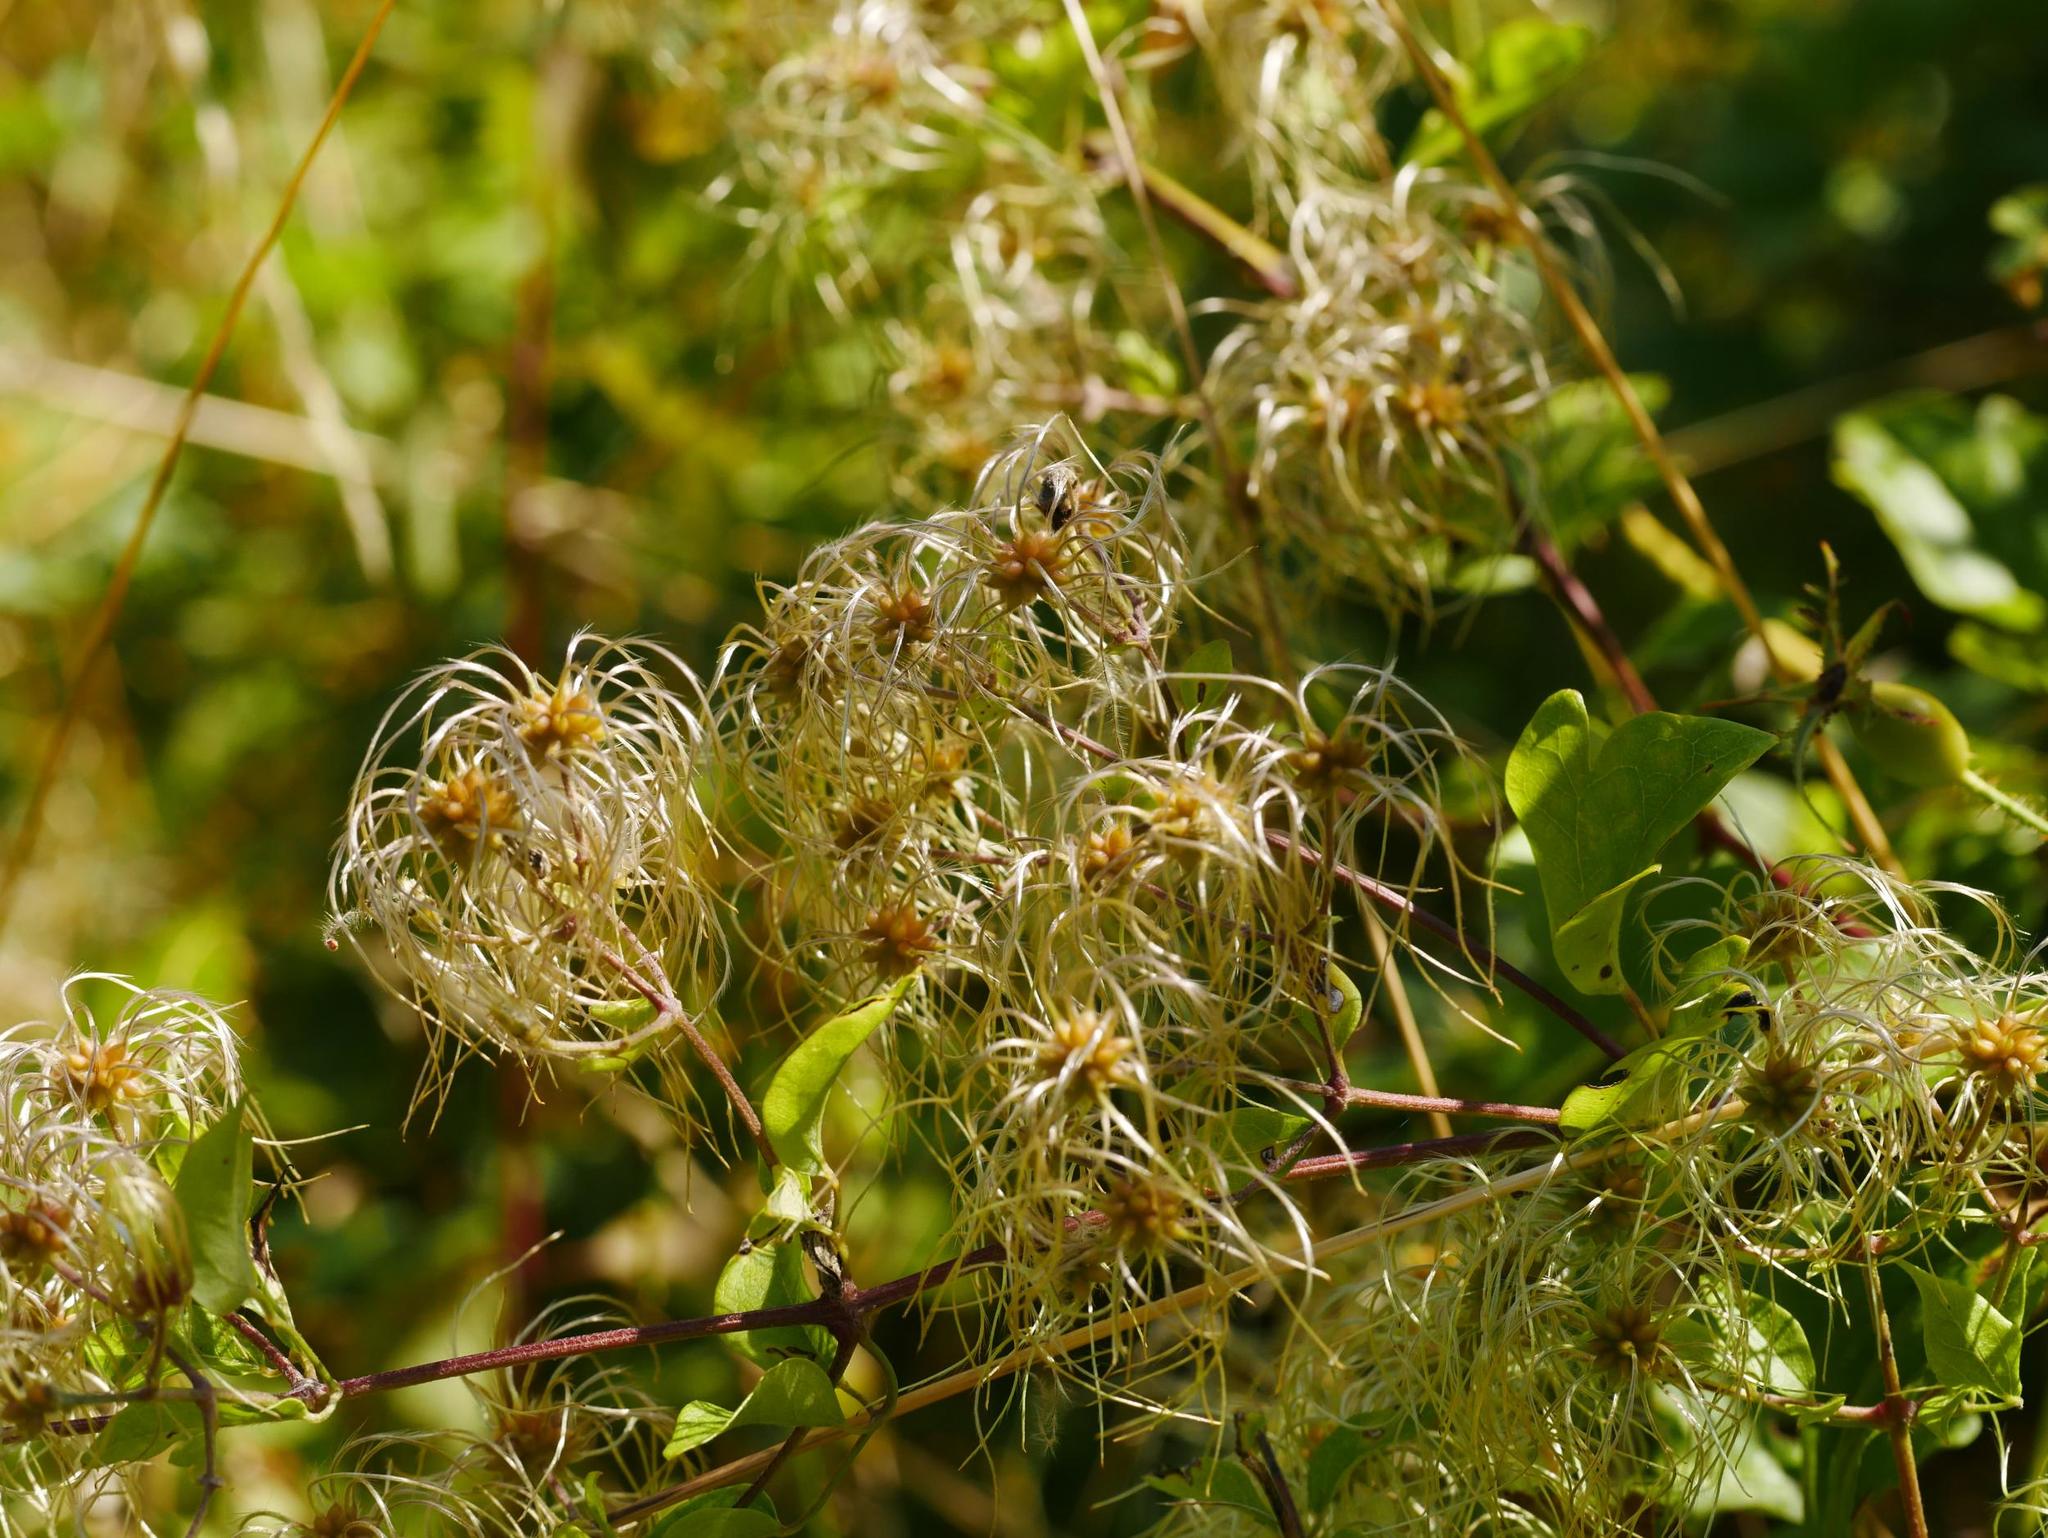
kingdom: Plantae
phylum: Tracheophyta
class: Magnoliopsida
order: Ranunculales
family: Ranunculaceae
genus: Clematis
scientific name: Clematis vitalba
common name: Evergreen clematis
